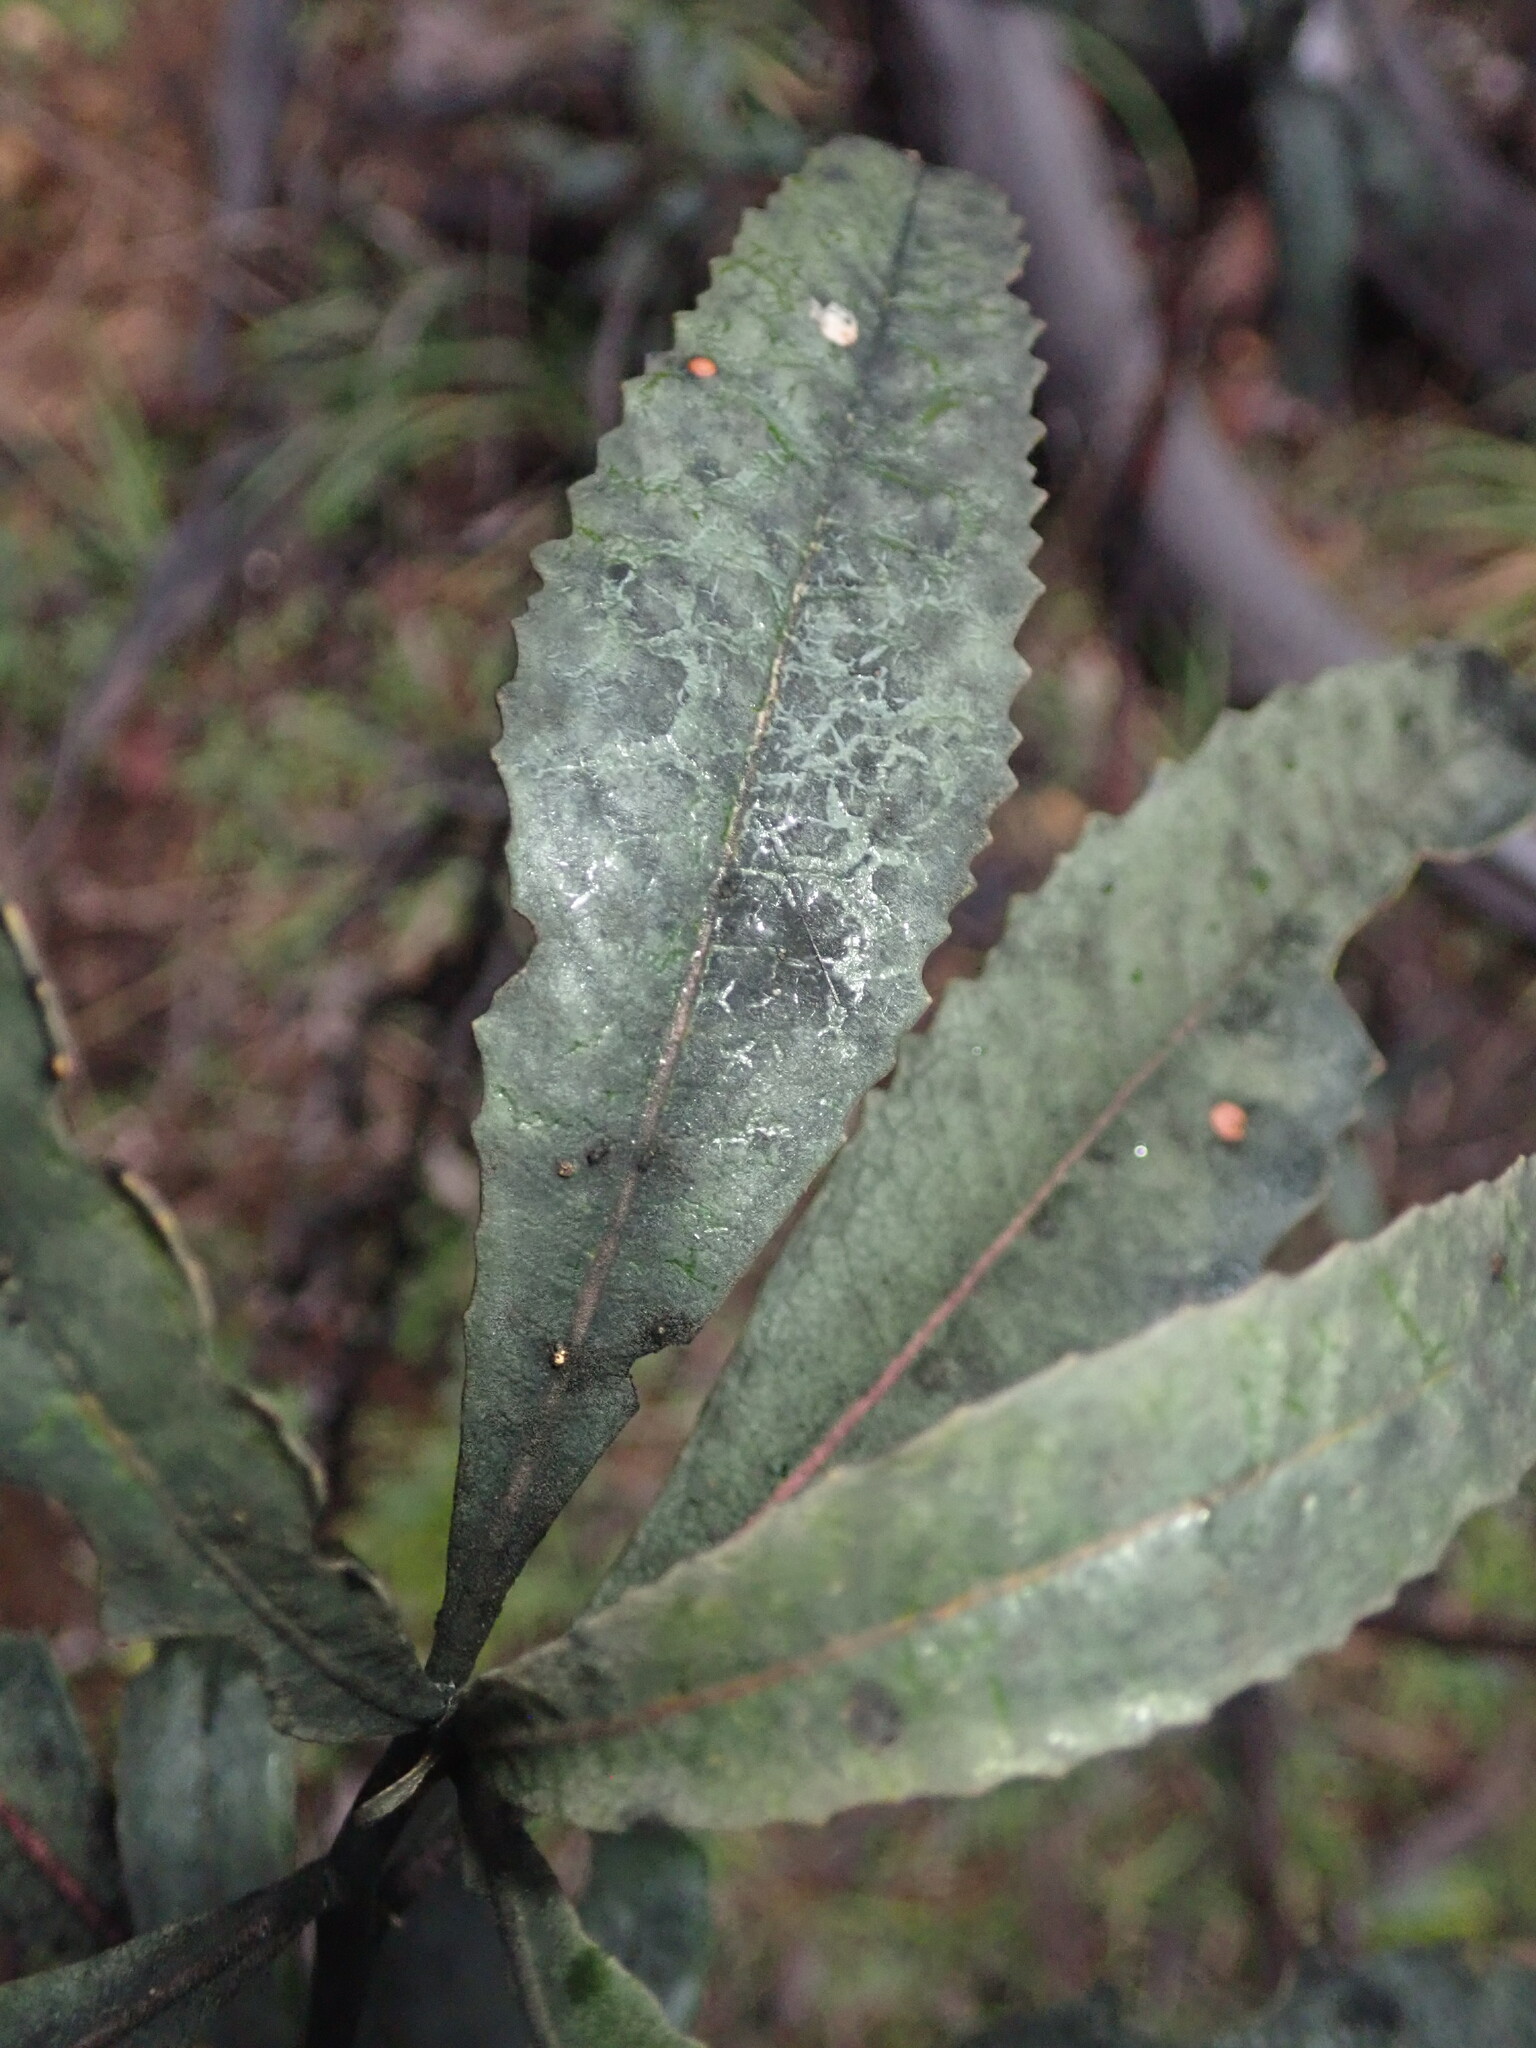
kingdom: Plantae
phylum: Tracheophyta
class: Magnoliopsida
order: Boraginales
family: Namaceae
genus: Eriodictyon
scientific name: Eriodictyon californicum
